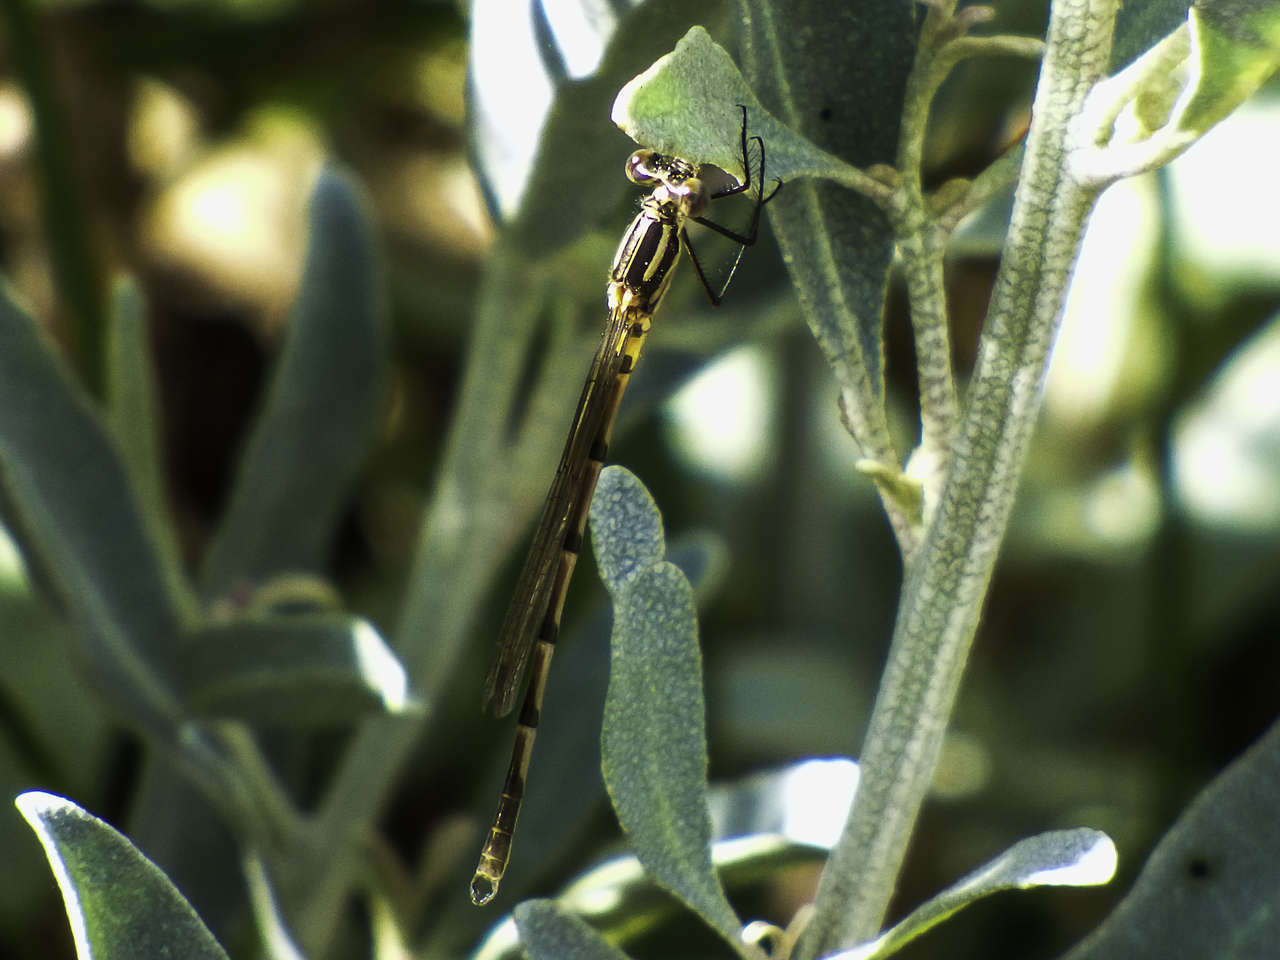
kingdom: Animalia
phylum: Arthropoda
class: Insecta
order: Odonata
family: Lestidae
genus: Austrolestes
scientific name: Austrolestes annulosus
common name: Blue ringtail
